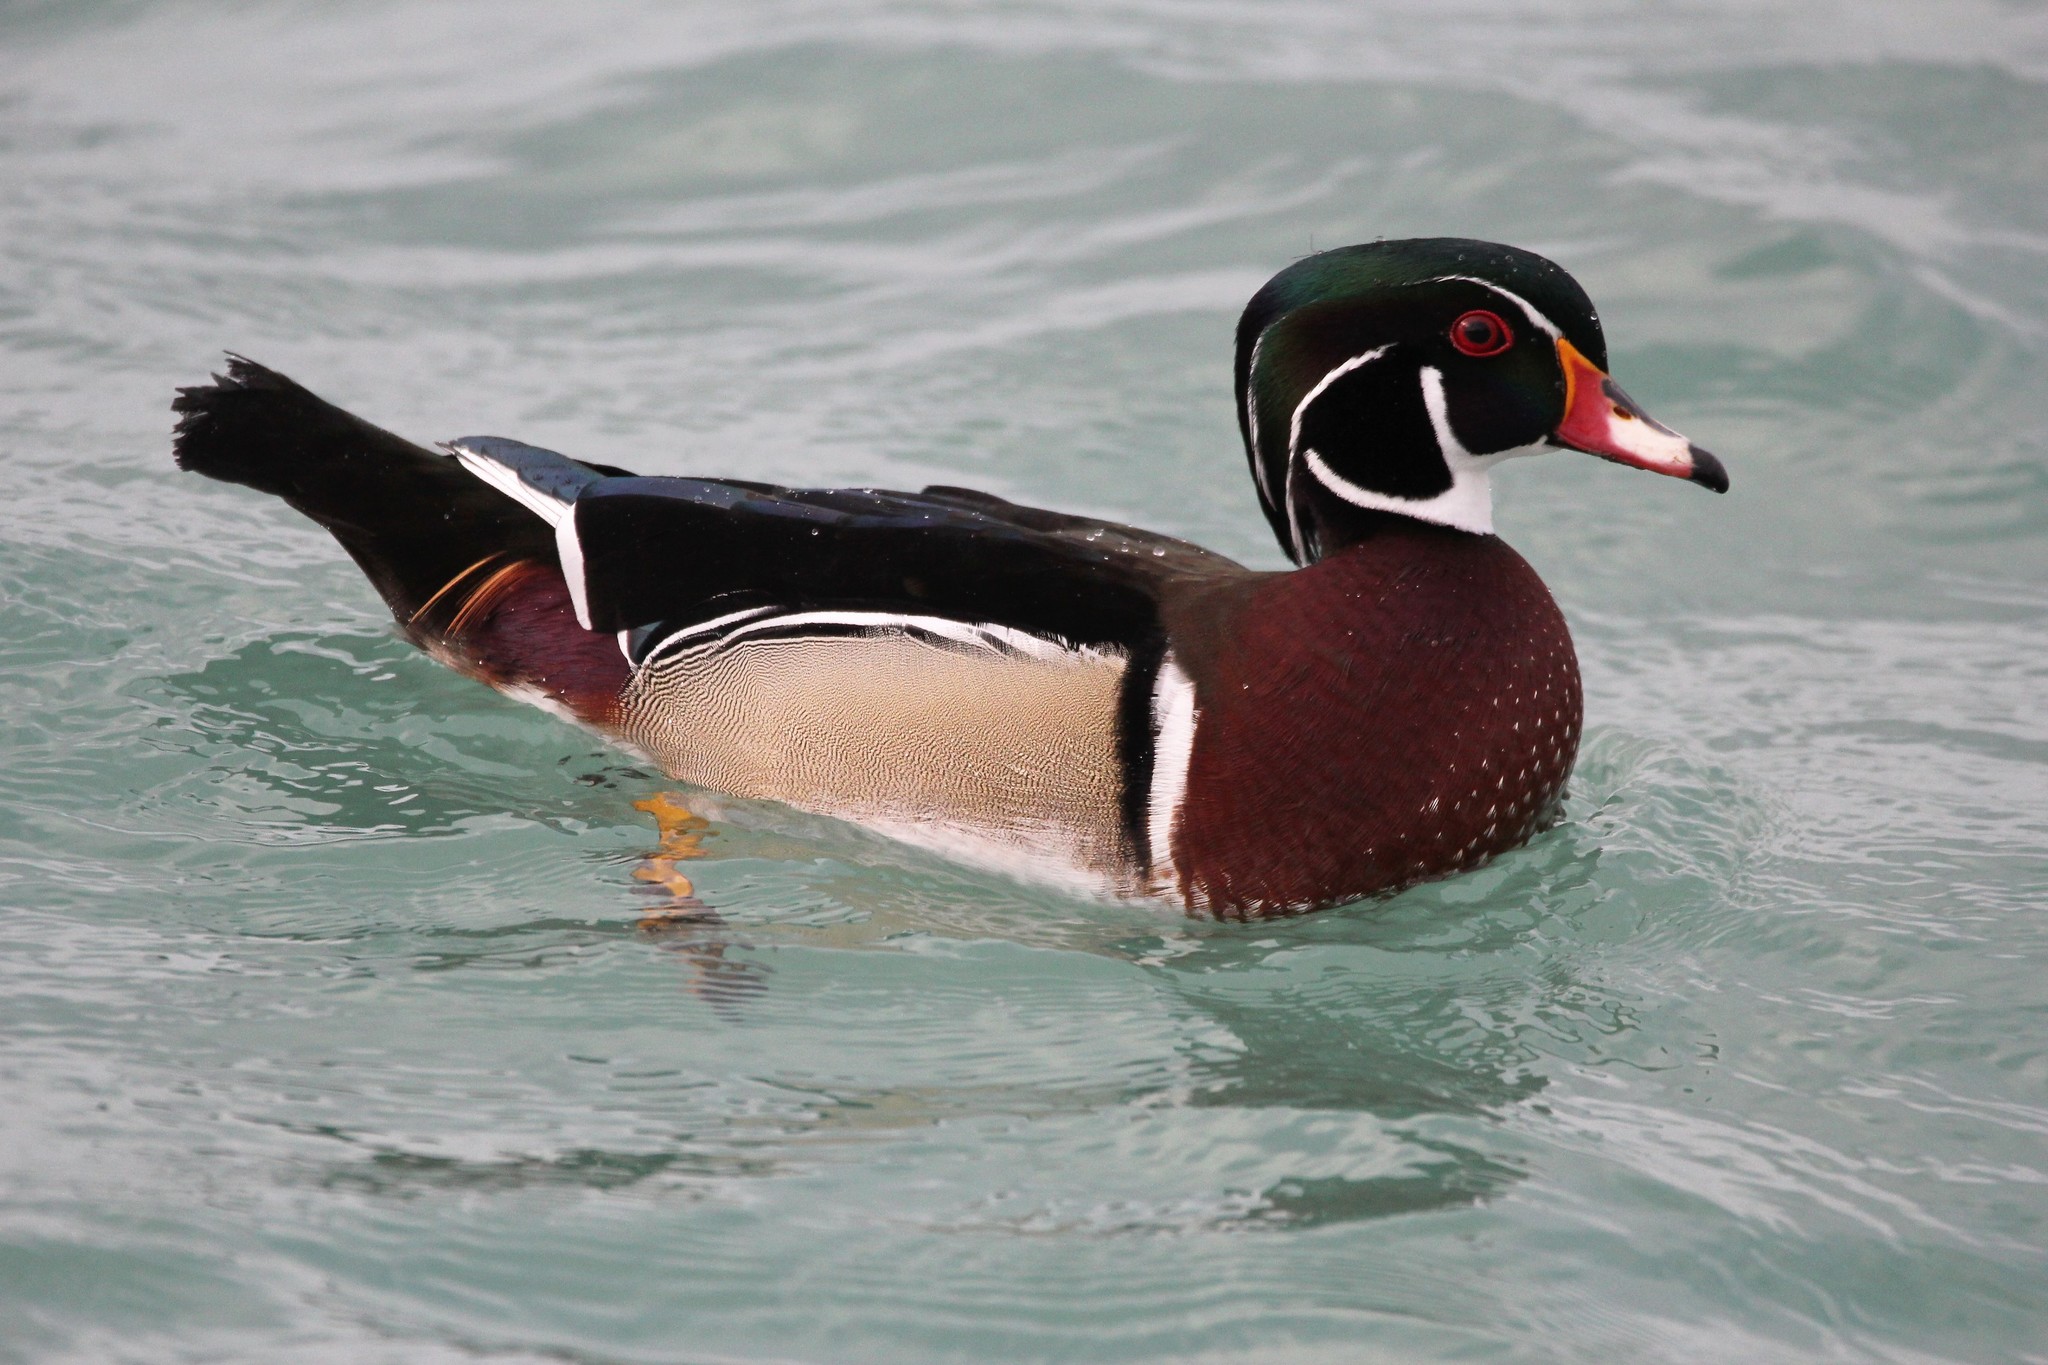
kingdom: Animalia
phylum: Chordata
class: Aves
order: Anseriformes
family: Anatidae
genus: Aix
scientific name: Aix sponsa
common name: Wood duck
